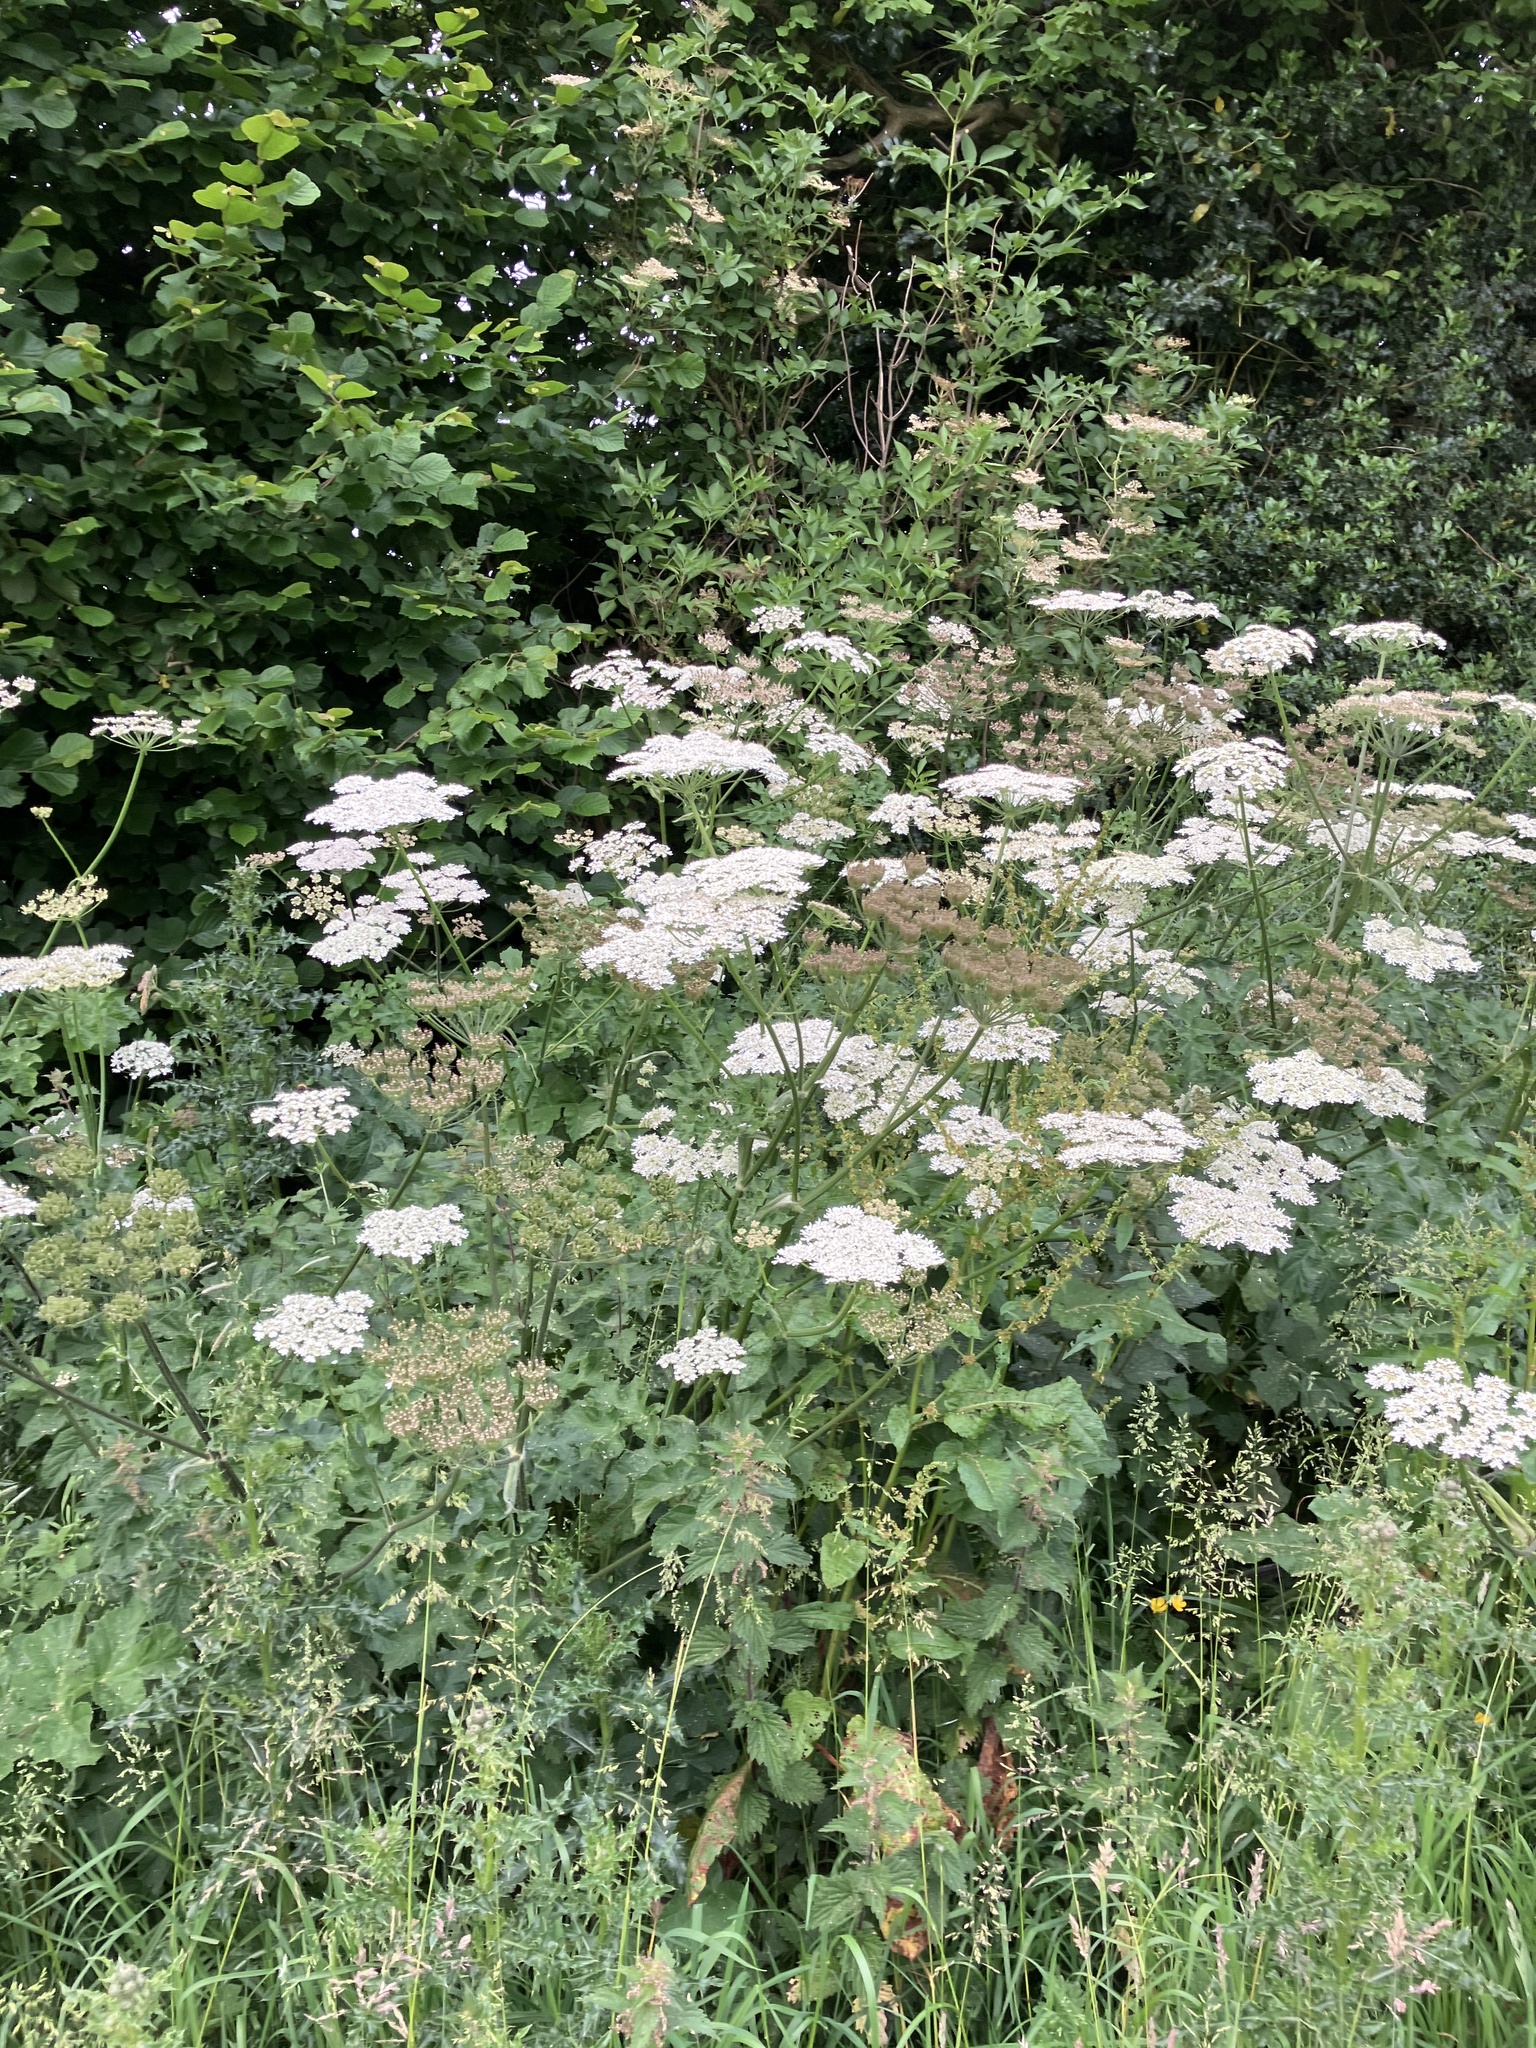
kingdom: Plantae
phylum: Tracheophyta
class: Magnoliopsida
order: Apiales
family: Apiaceae
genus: Heracleum
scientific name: Heracleum sphondylium
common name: Hogweed
